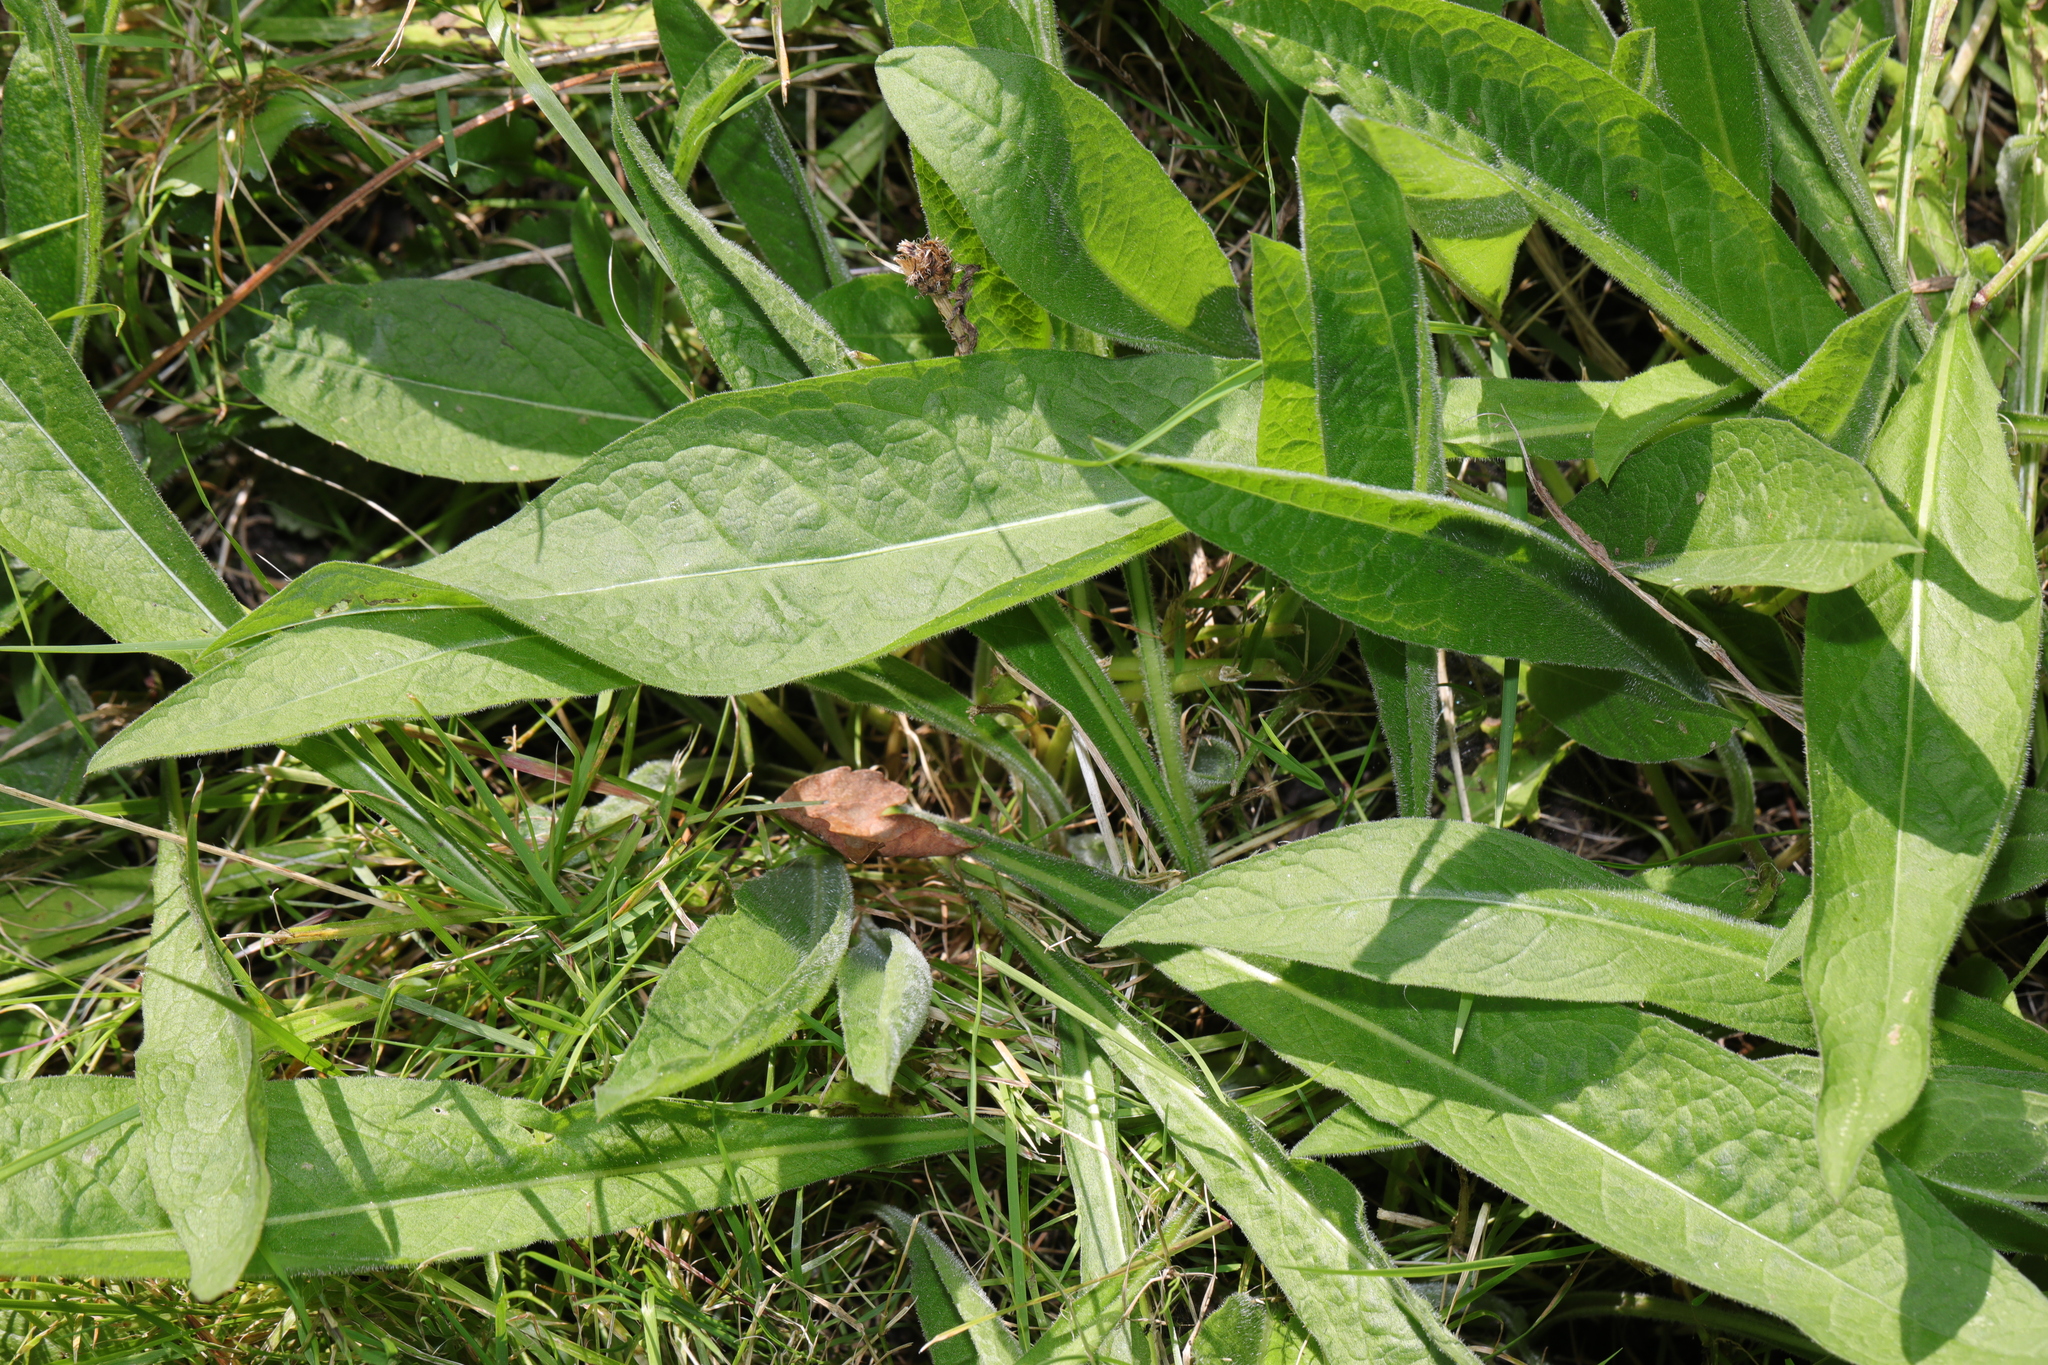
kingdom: Plantae
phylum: Tracheophyta
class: Magnoliopsida
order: Asterales
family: Asteraceae
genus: Centaurea
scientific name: Centaurea nigra
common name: Lesser knapweed
